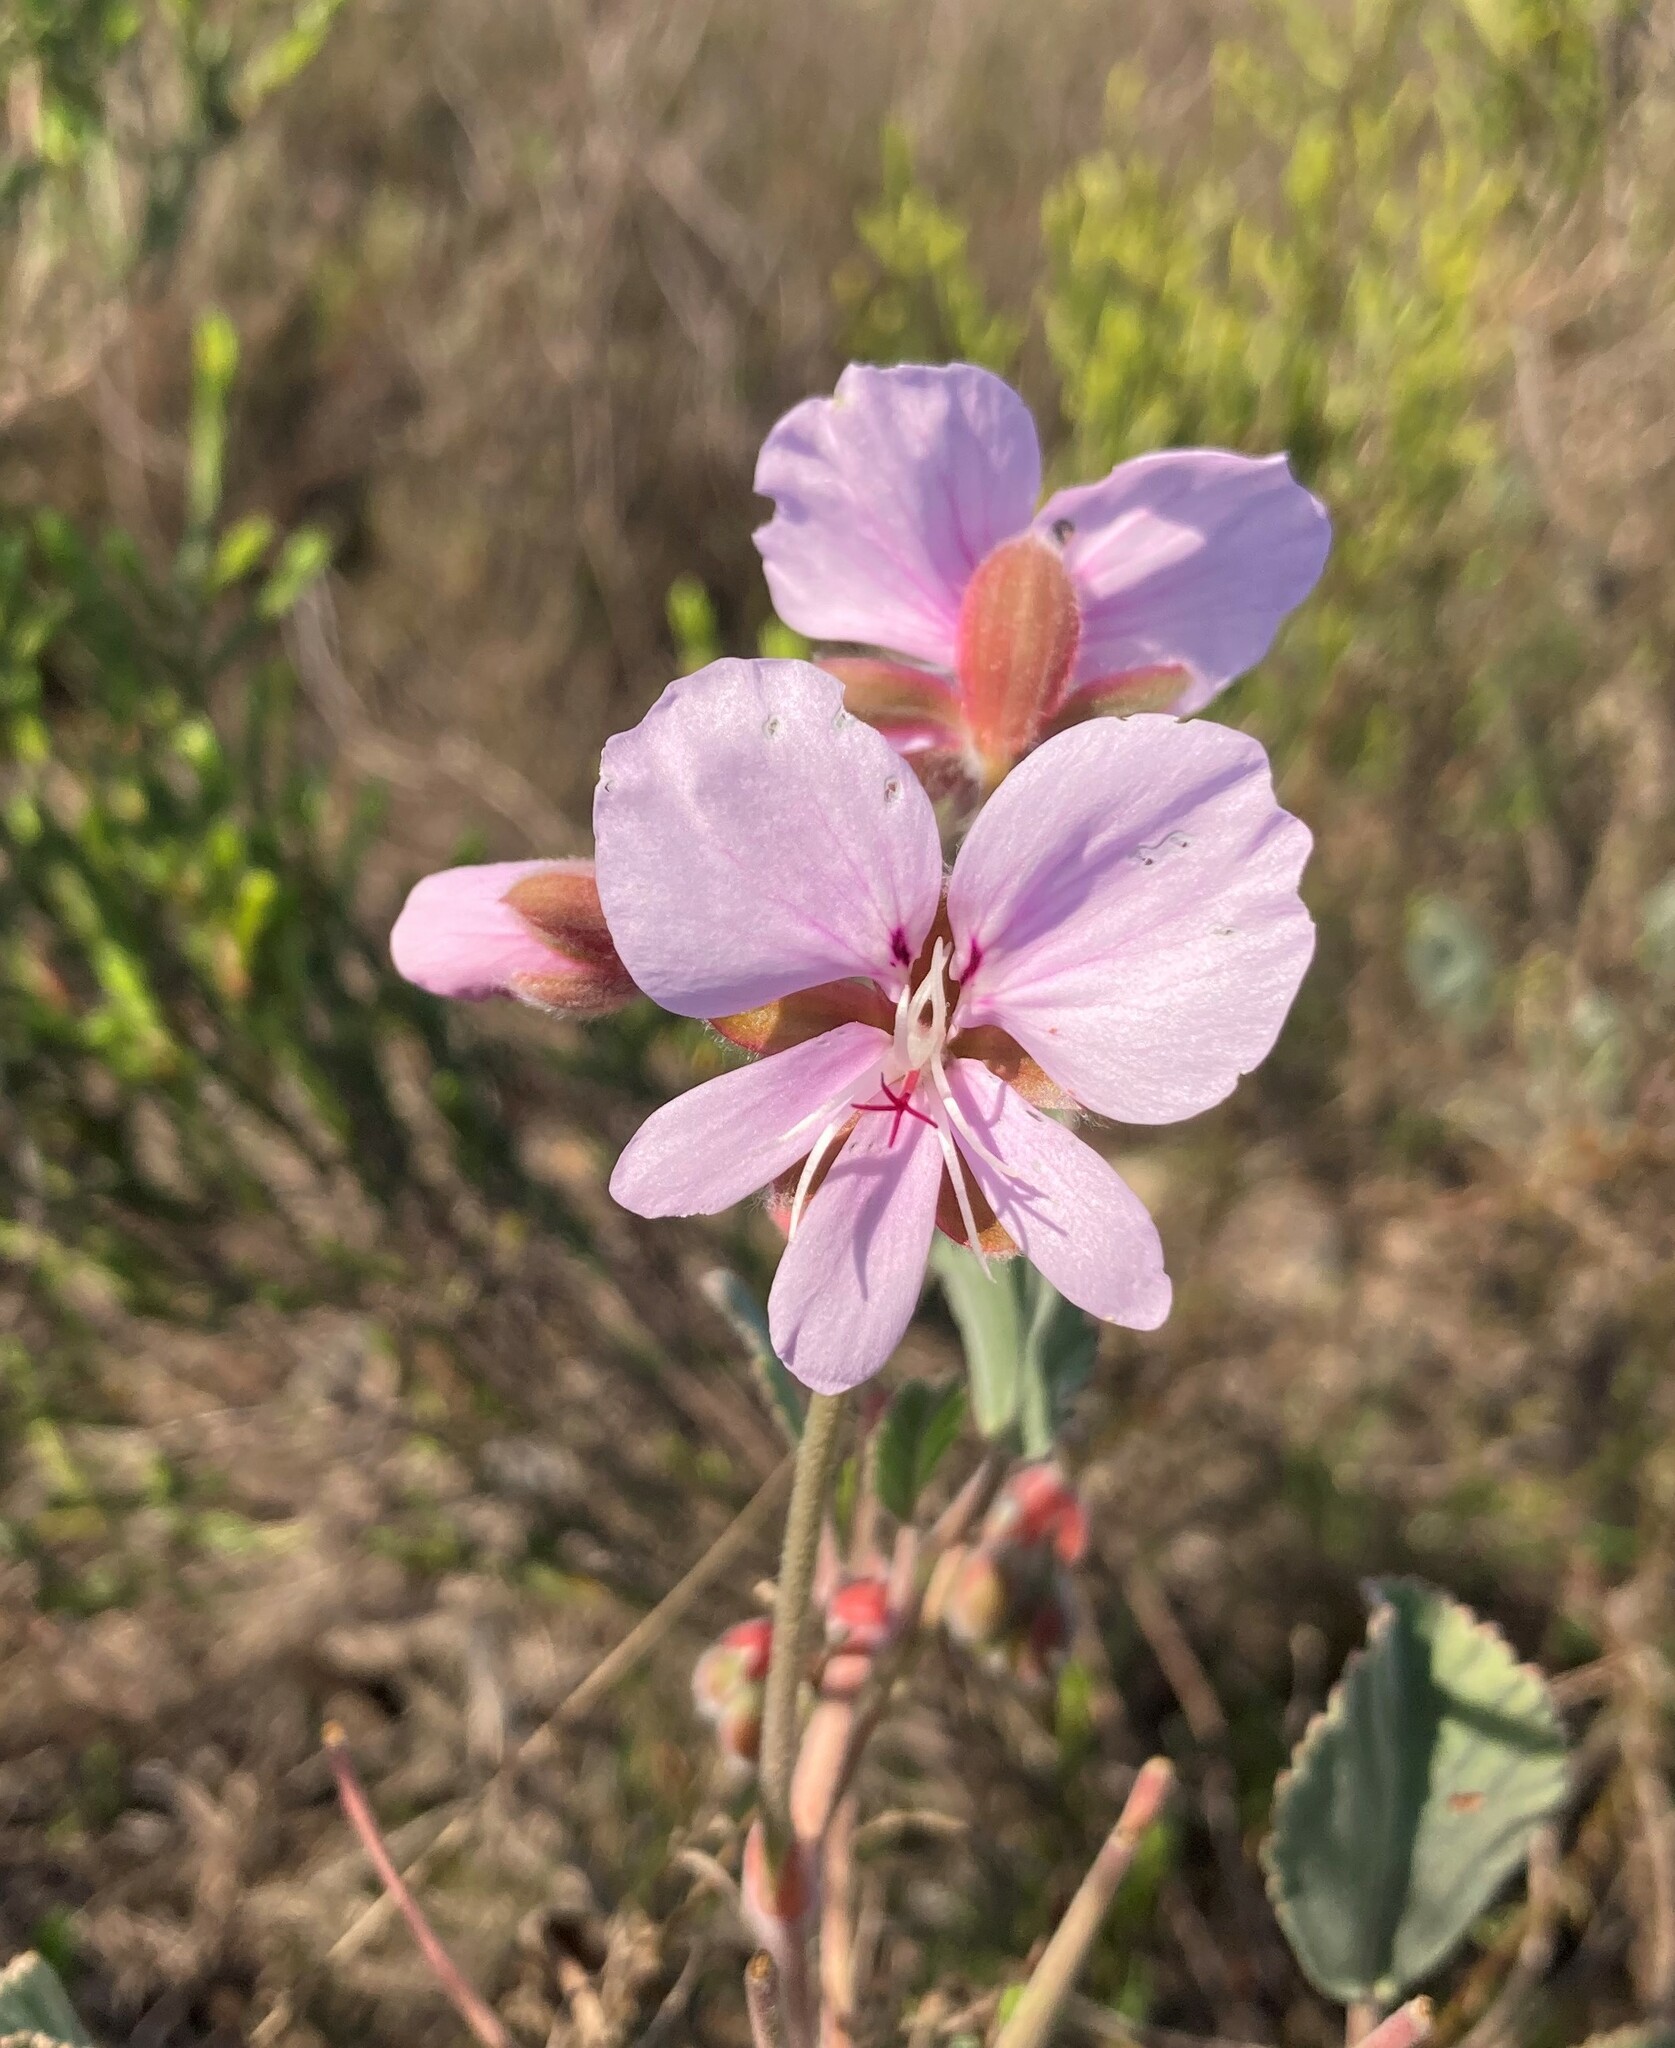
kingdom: Plantae
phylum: Tracheophyta
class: Magnoliopsida
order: Geraniales
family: Geraniaceae
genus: Pelargonium
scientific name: Pelargonium ovale
